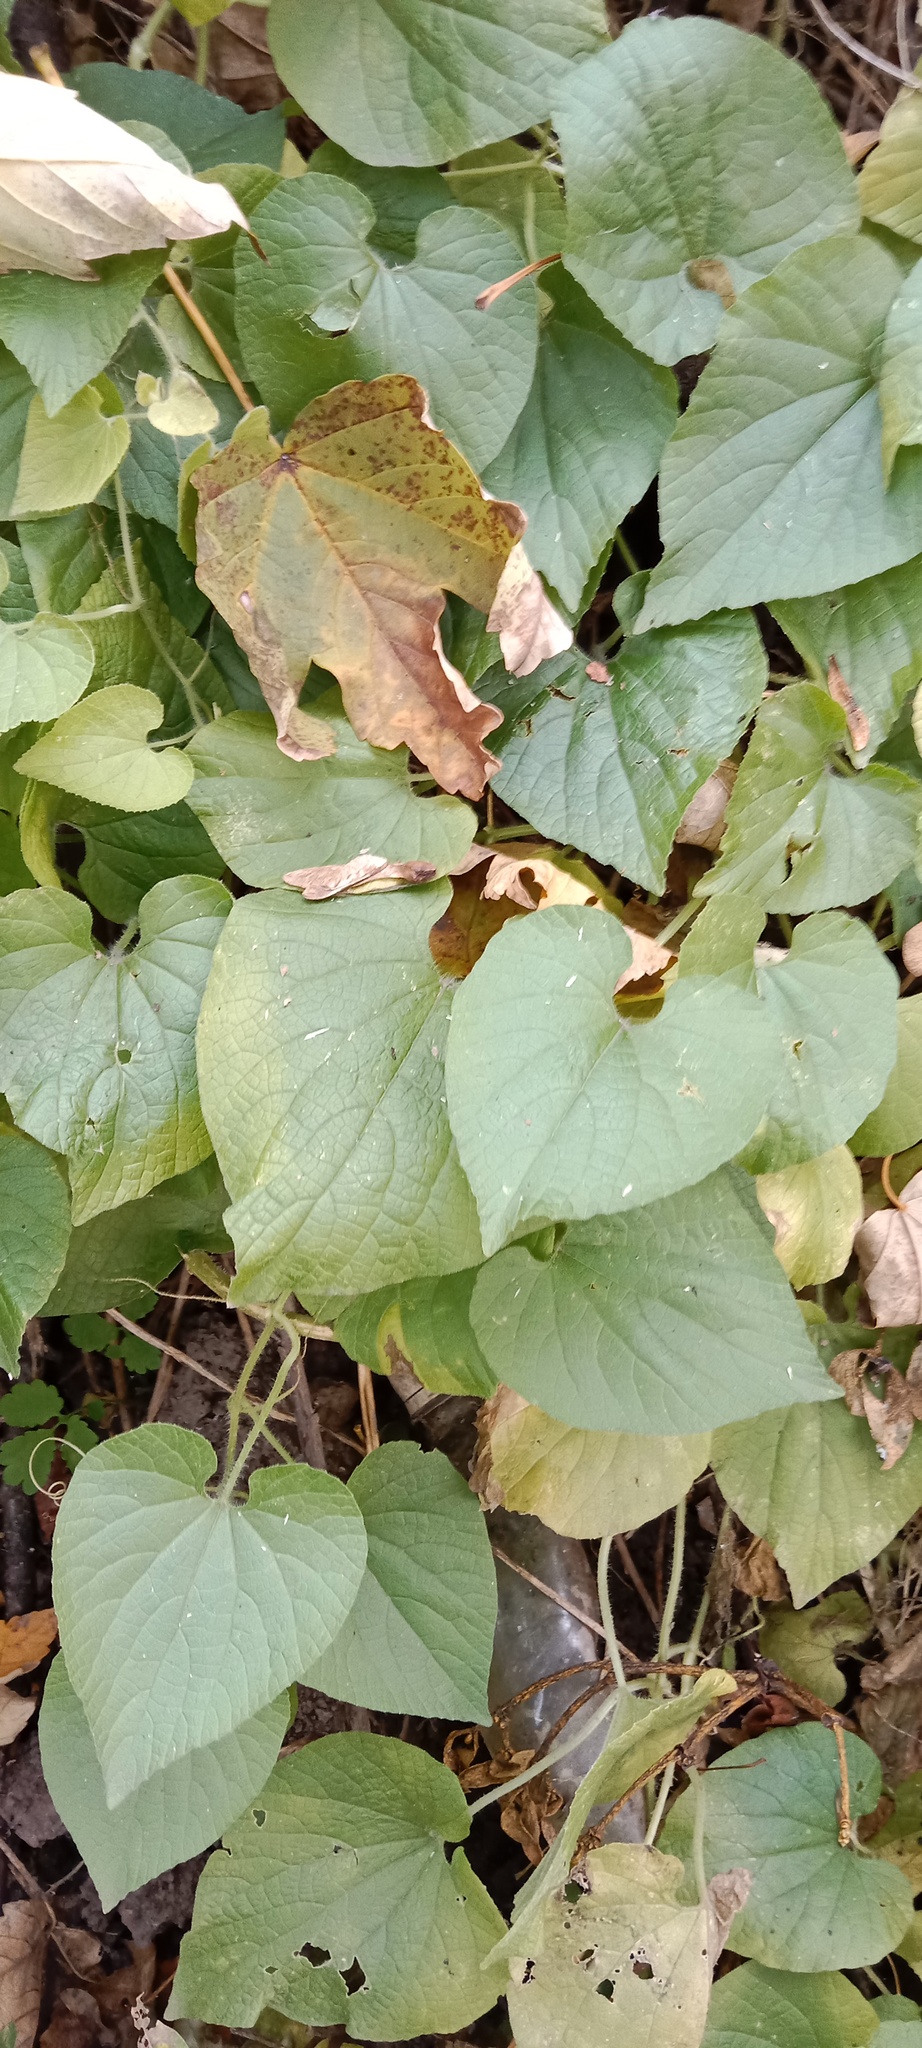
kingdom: Plantae
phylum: Tracheophyta
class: Magnoliopsida
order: Cucurbitales
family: Cucurbitaceae
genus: Thladiantha
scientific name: Thladiantha dubia
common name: Manchu tubergourd
